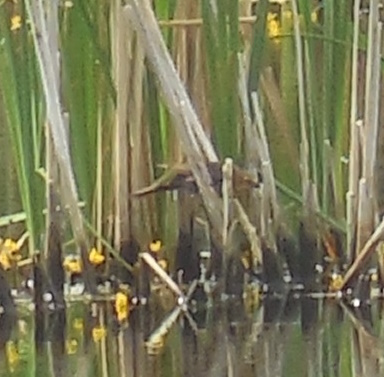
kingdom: Animalia
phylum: Chordata
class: Aves
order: Passeriformes
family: Icteridae
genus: Xanthocephalus
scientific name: Xanthocephalus xanthocephalus
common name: Yellow-headed blackbird
